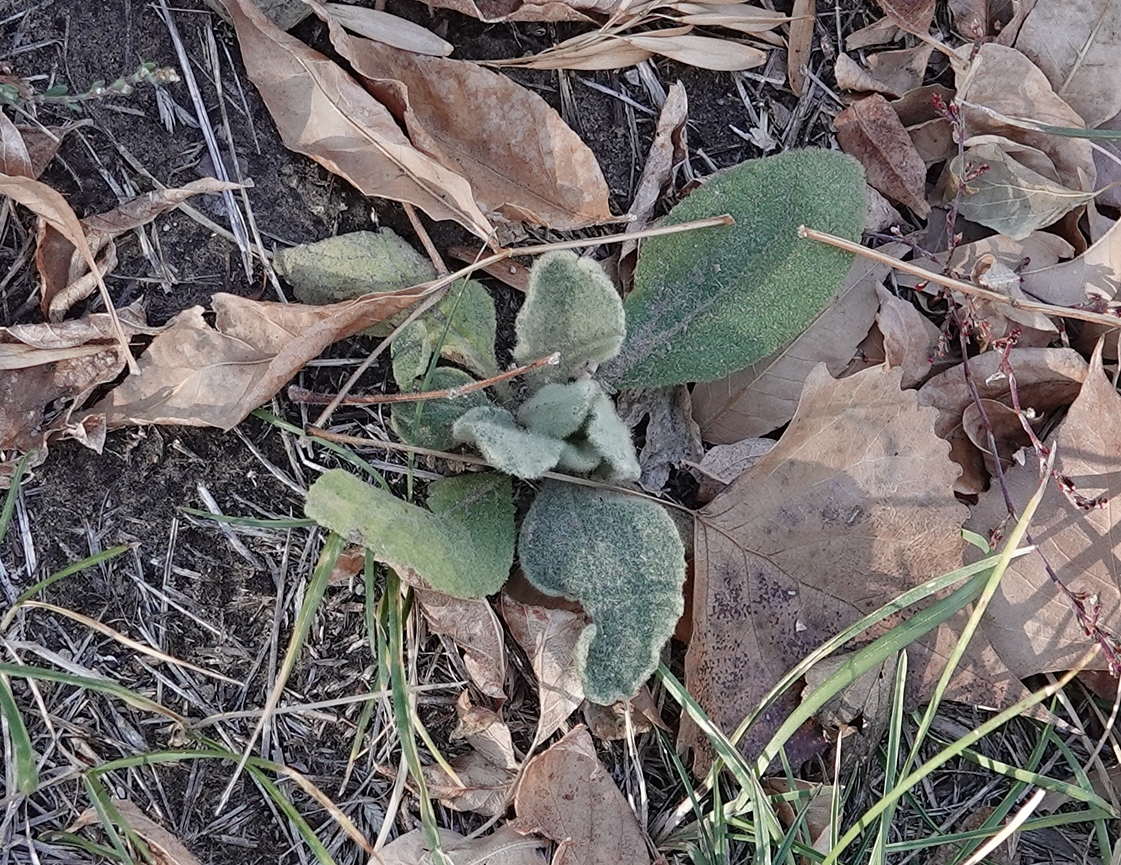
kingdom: Plantae
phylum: Tracheophyta
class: Magnoliopsida
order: Lamiales
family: Scrophulariaceae
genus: Verbascum
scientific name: Verbascum thapsus
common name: Common mullein
